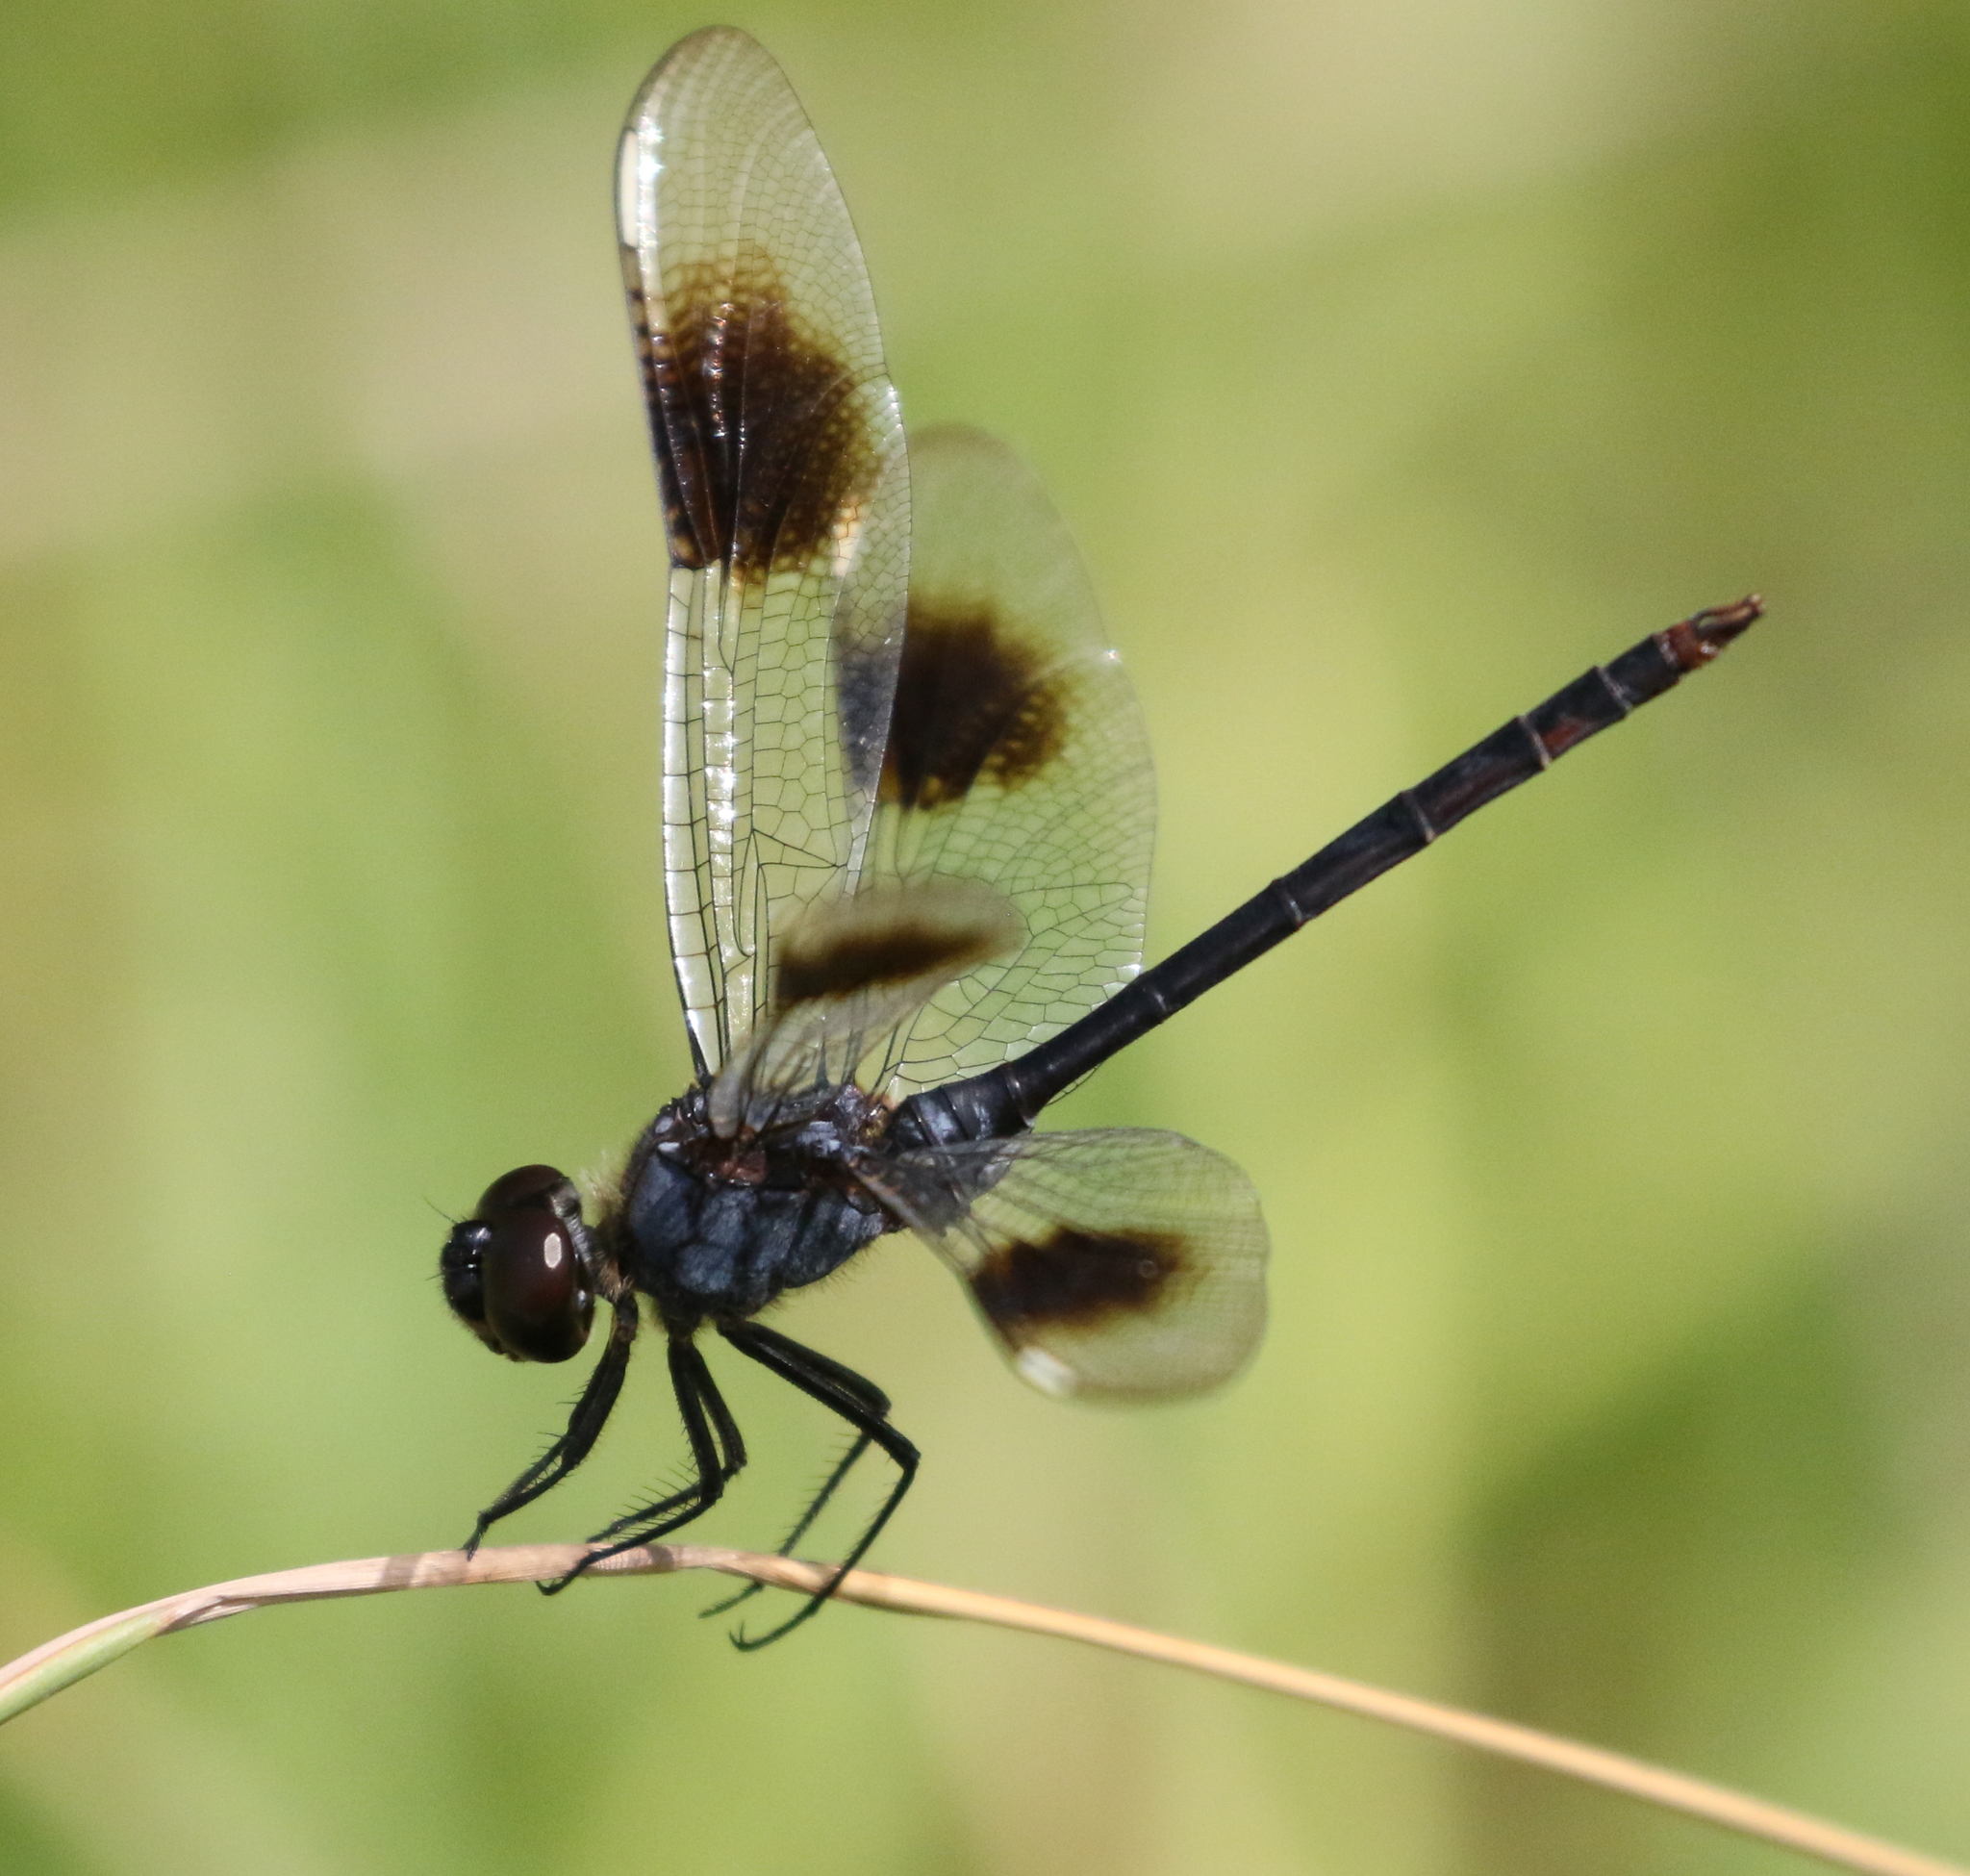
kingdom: Animalia
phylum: Arthropoda
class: Insecta
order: Odonata
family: Libellulidae
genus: Brachymesia
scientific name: Brachymesia gravida
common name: Four-spotted pennant
